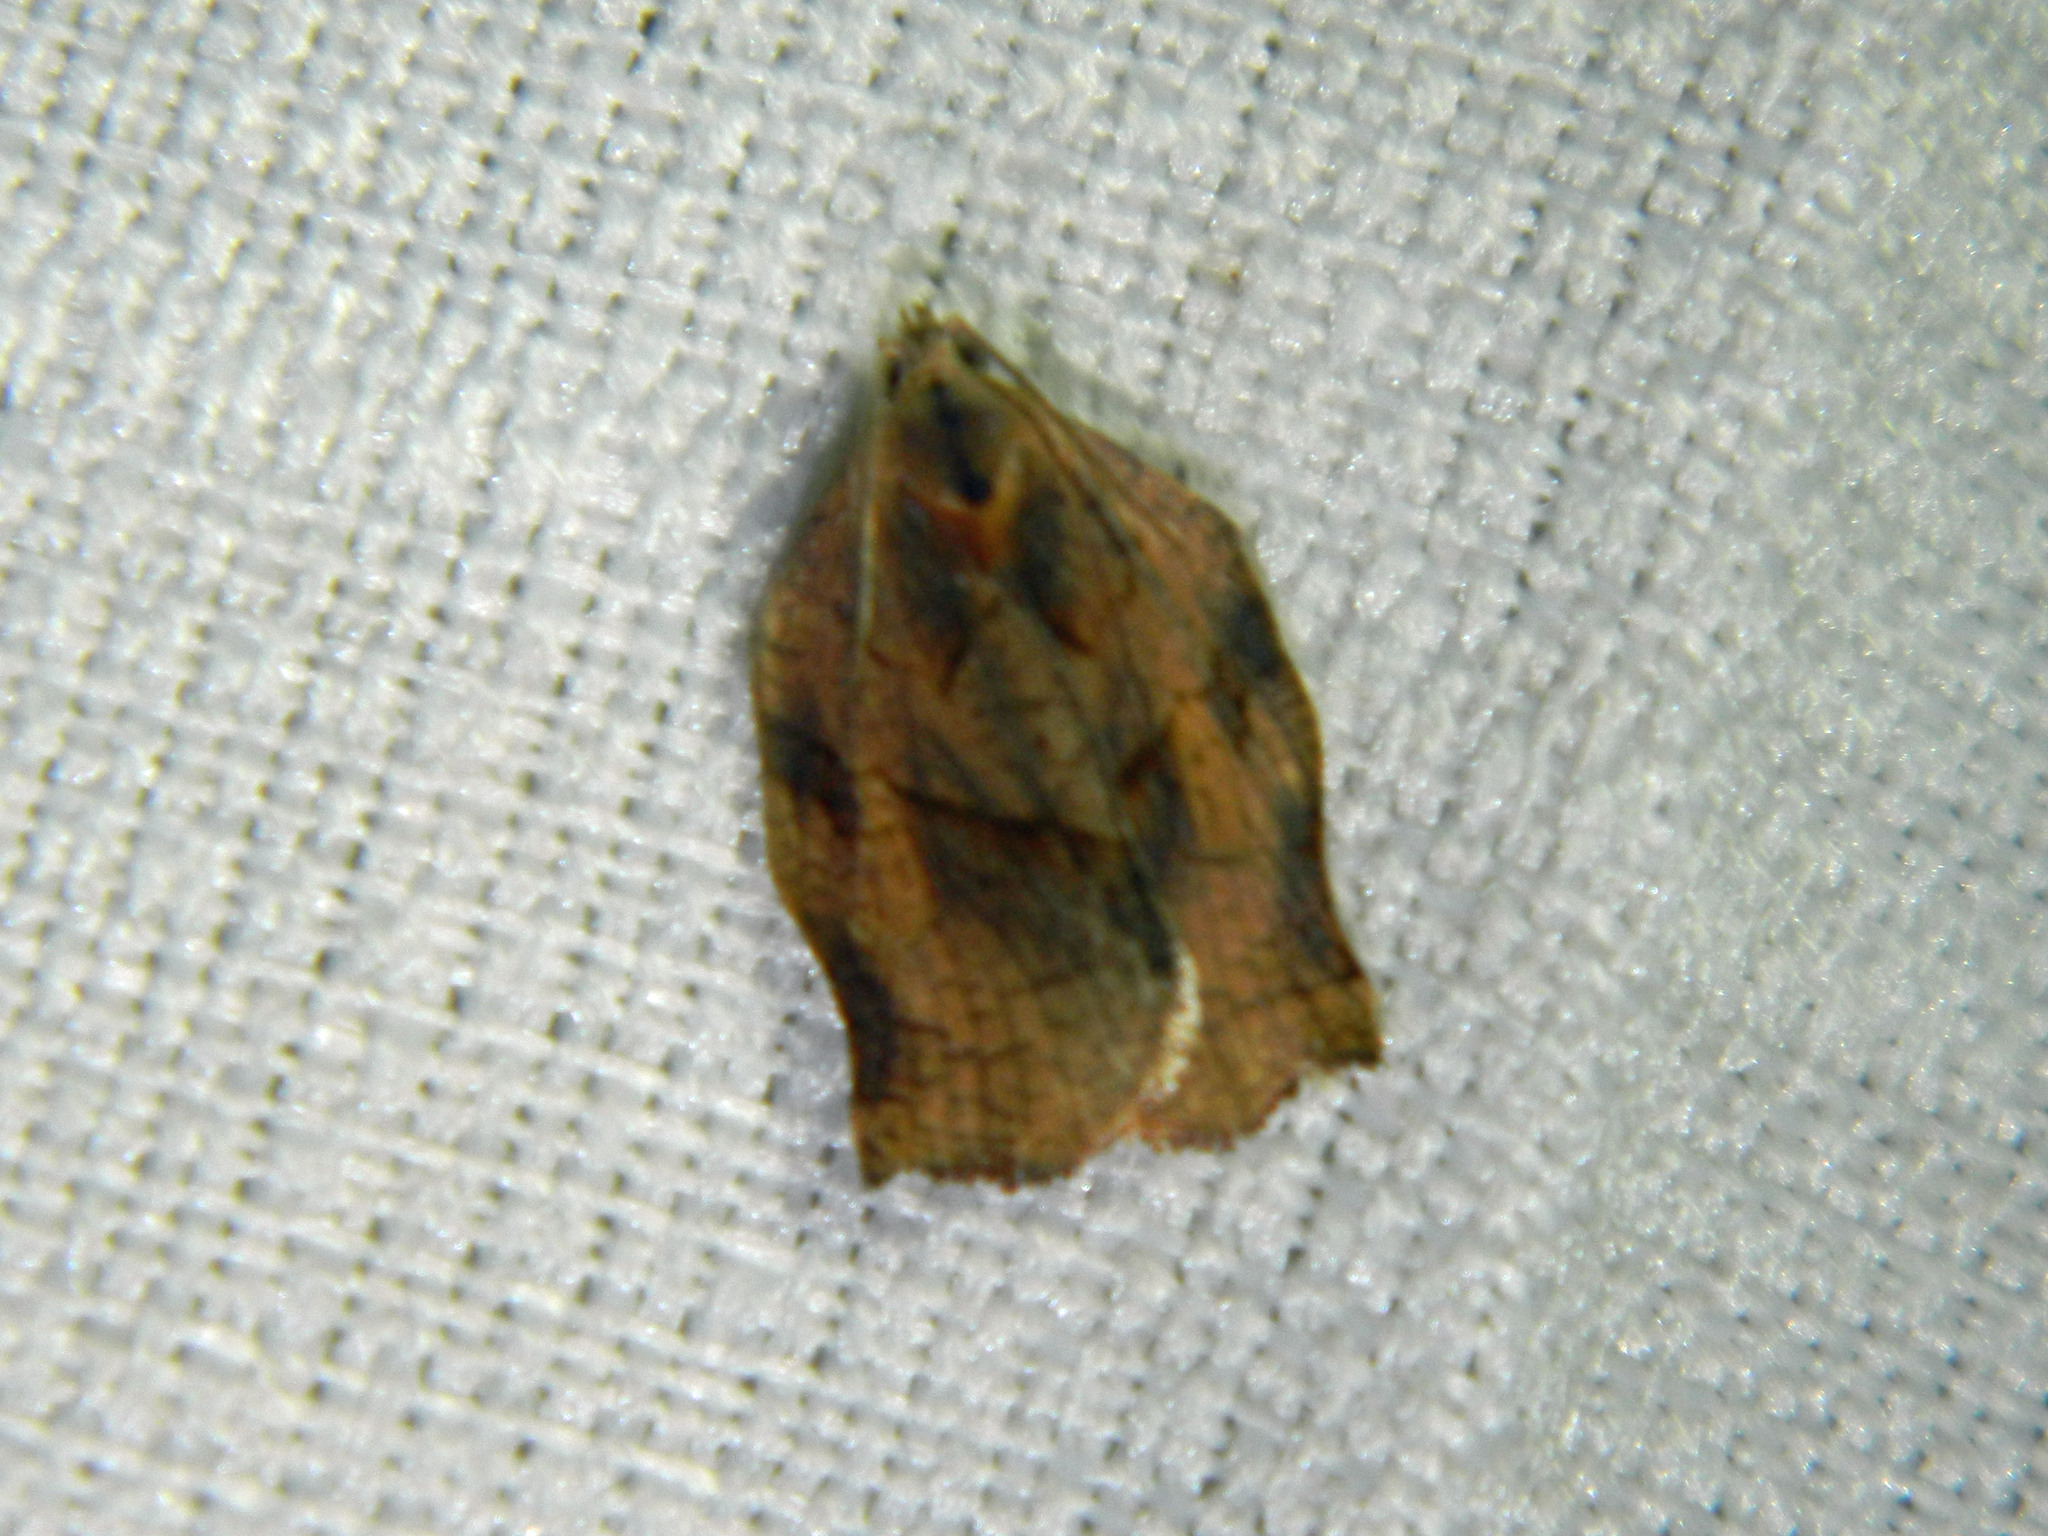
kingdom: Animalia
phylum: Arthropoda
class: Insecta
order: Lepidoptera
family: Tortricidae
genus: Archips
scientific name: Archips purpurana
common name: Omnivorous leafroller
